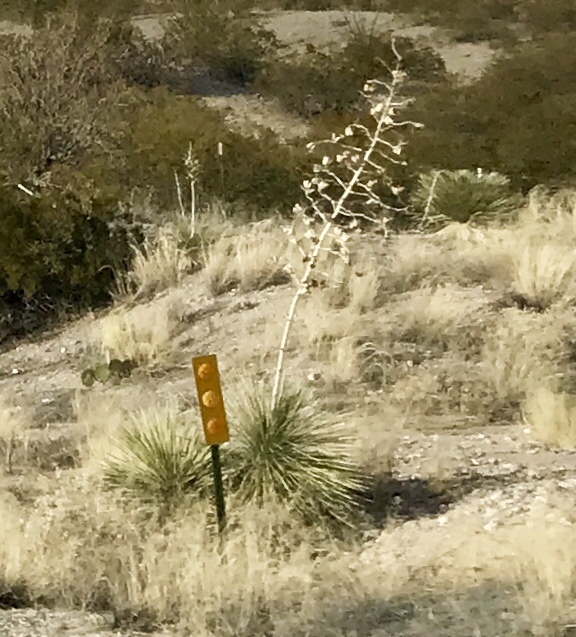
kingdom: Plantae
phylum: Tracheophyta
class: Liliopsida
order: Asparagales
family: Asparagaceae
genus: Yucca
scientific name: Yucca elata
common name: Palmella
